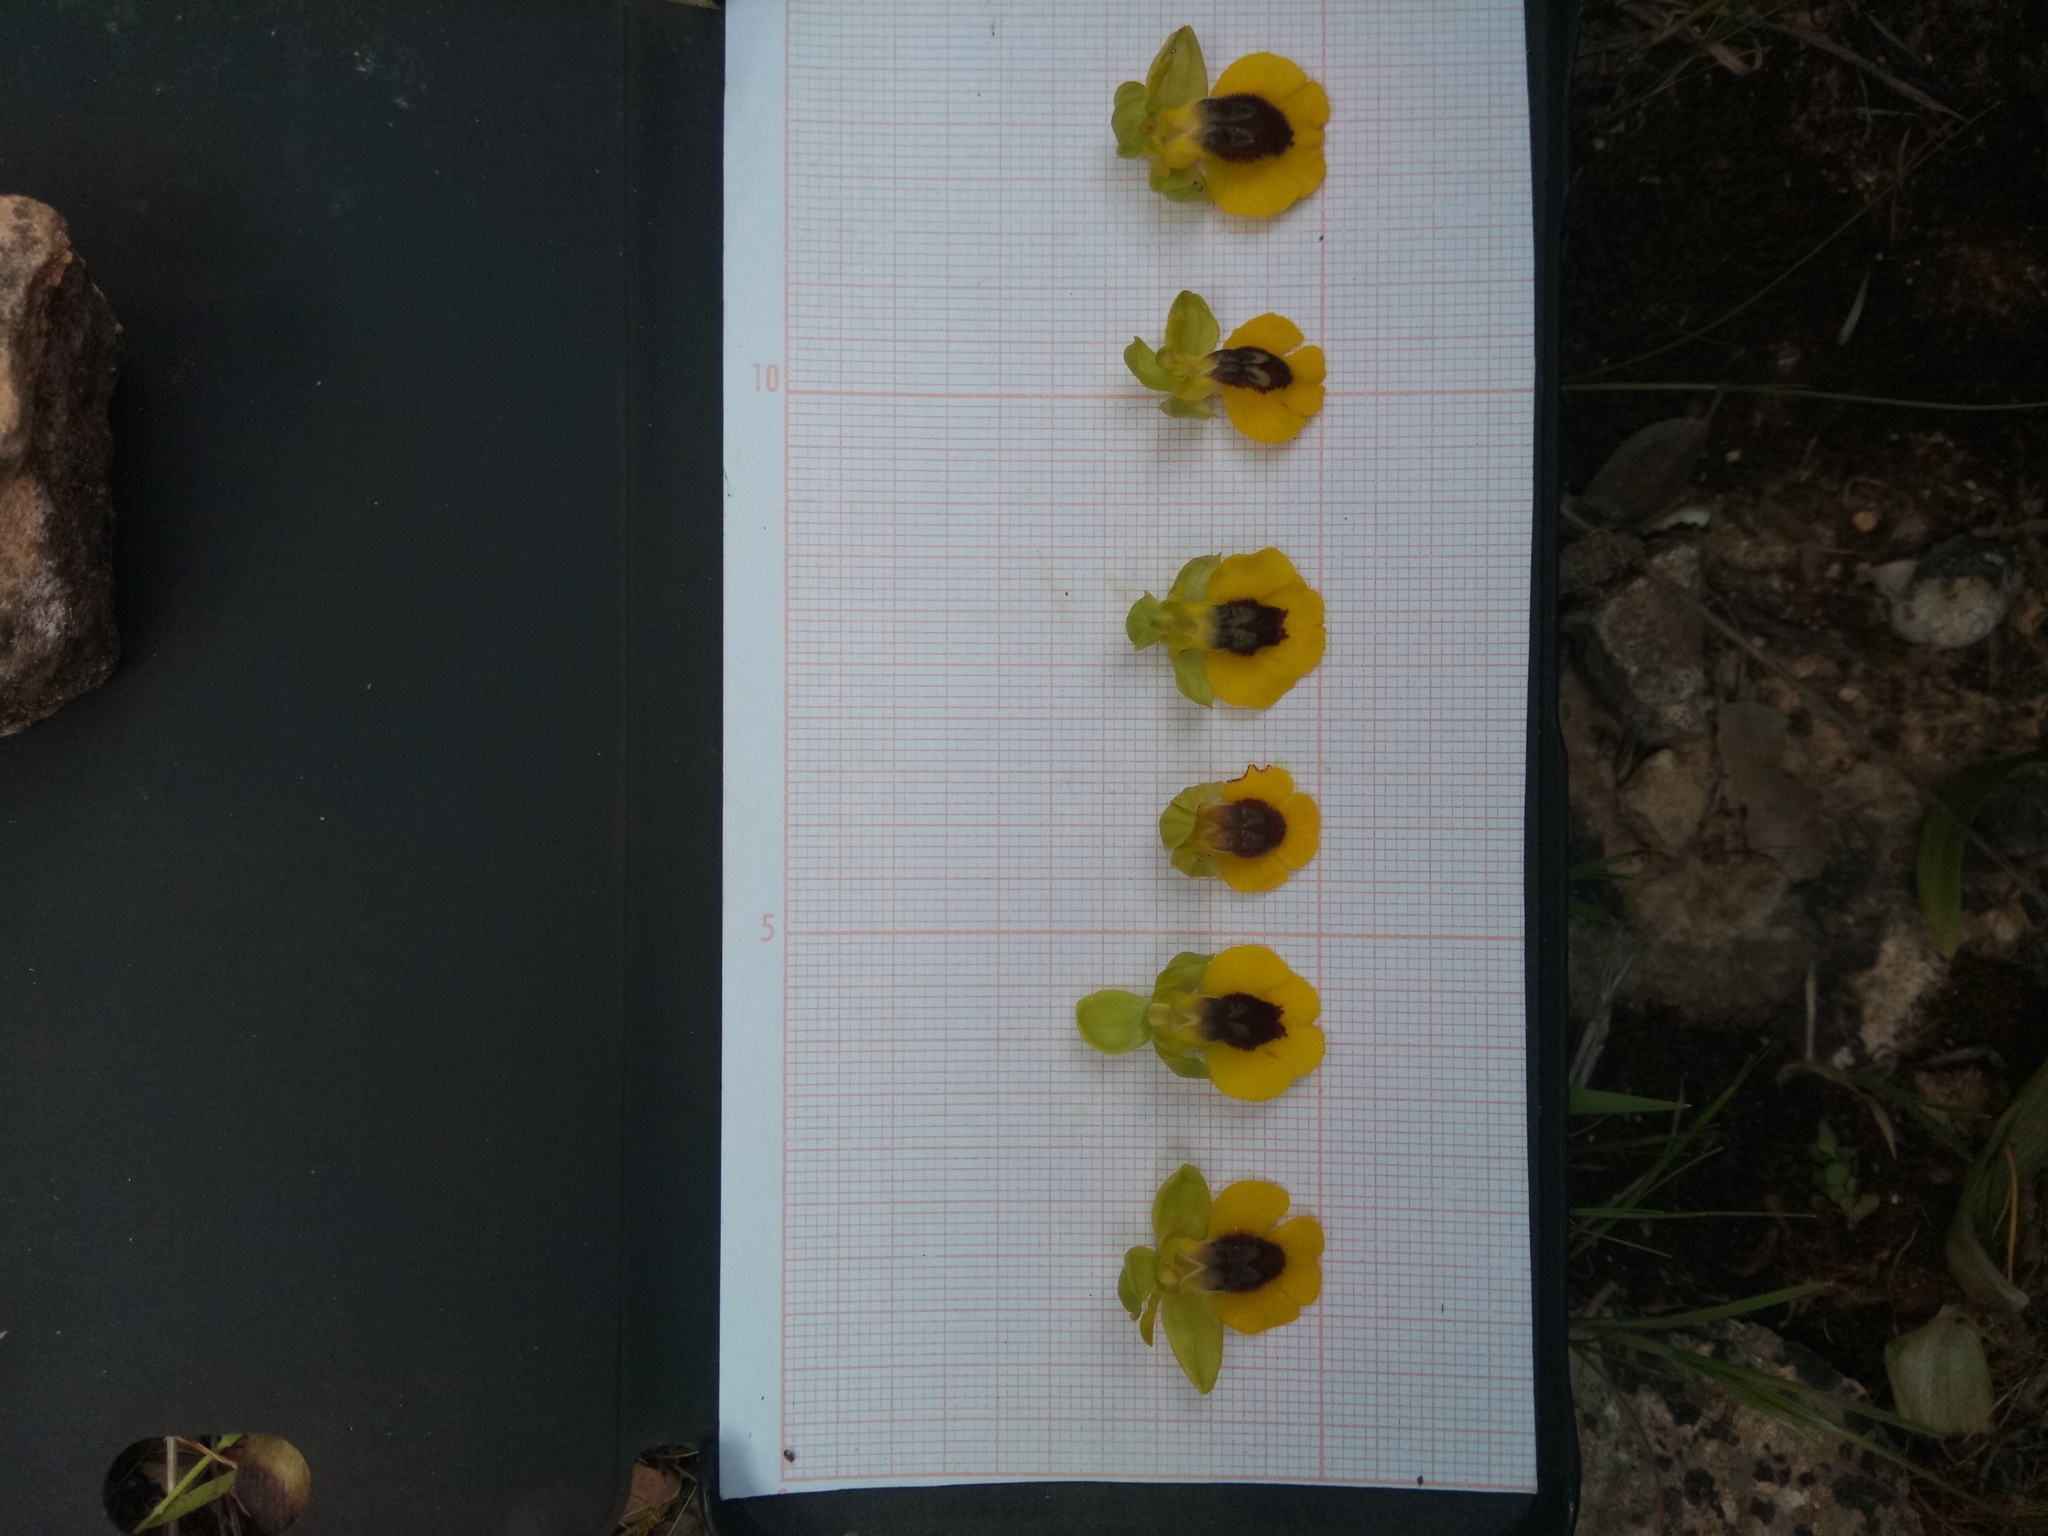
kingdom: Plantae
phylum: Tracheophyta
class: Liliopsida
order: Asparagales
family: Orchidaceae
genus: Ophrys
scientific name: Ophrys lutea
